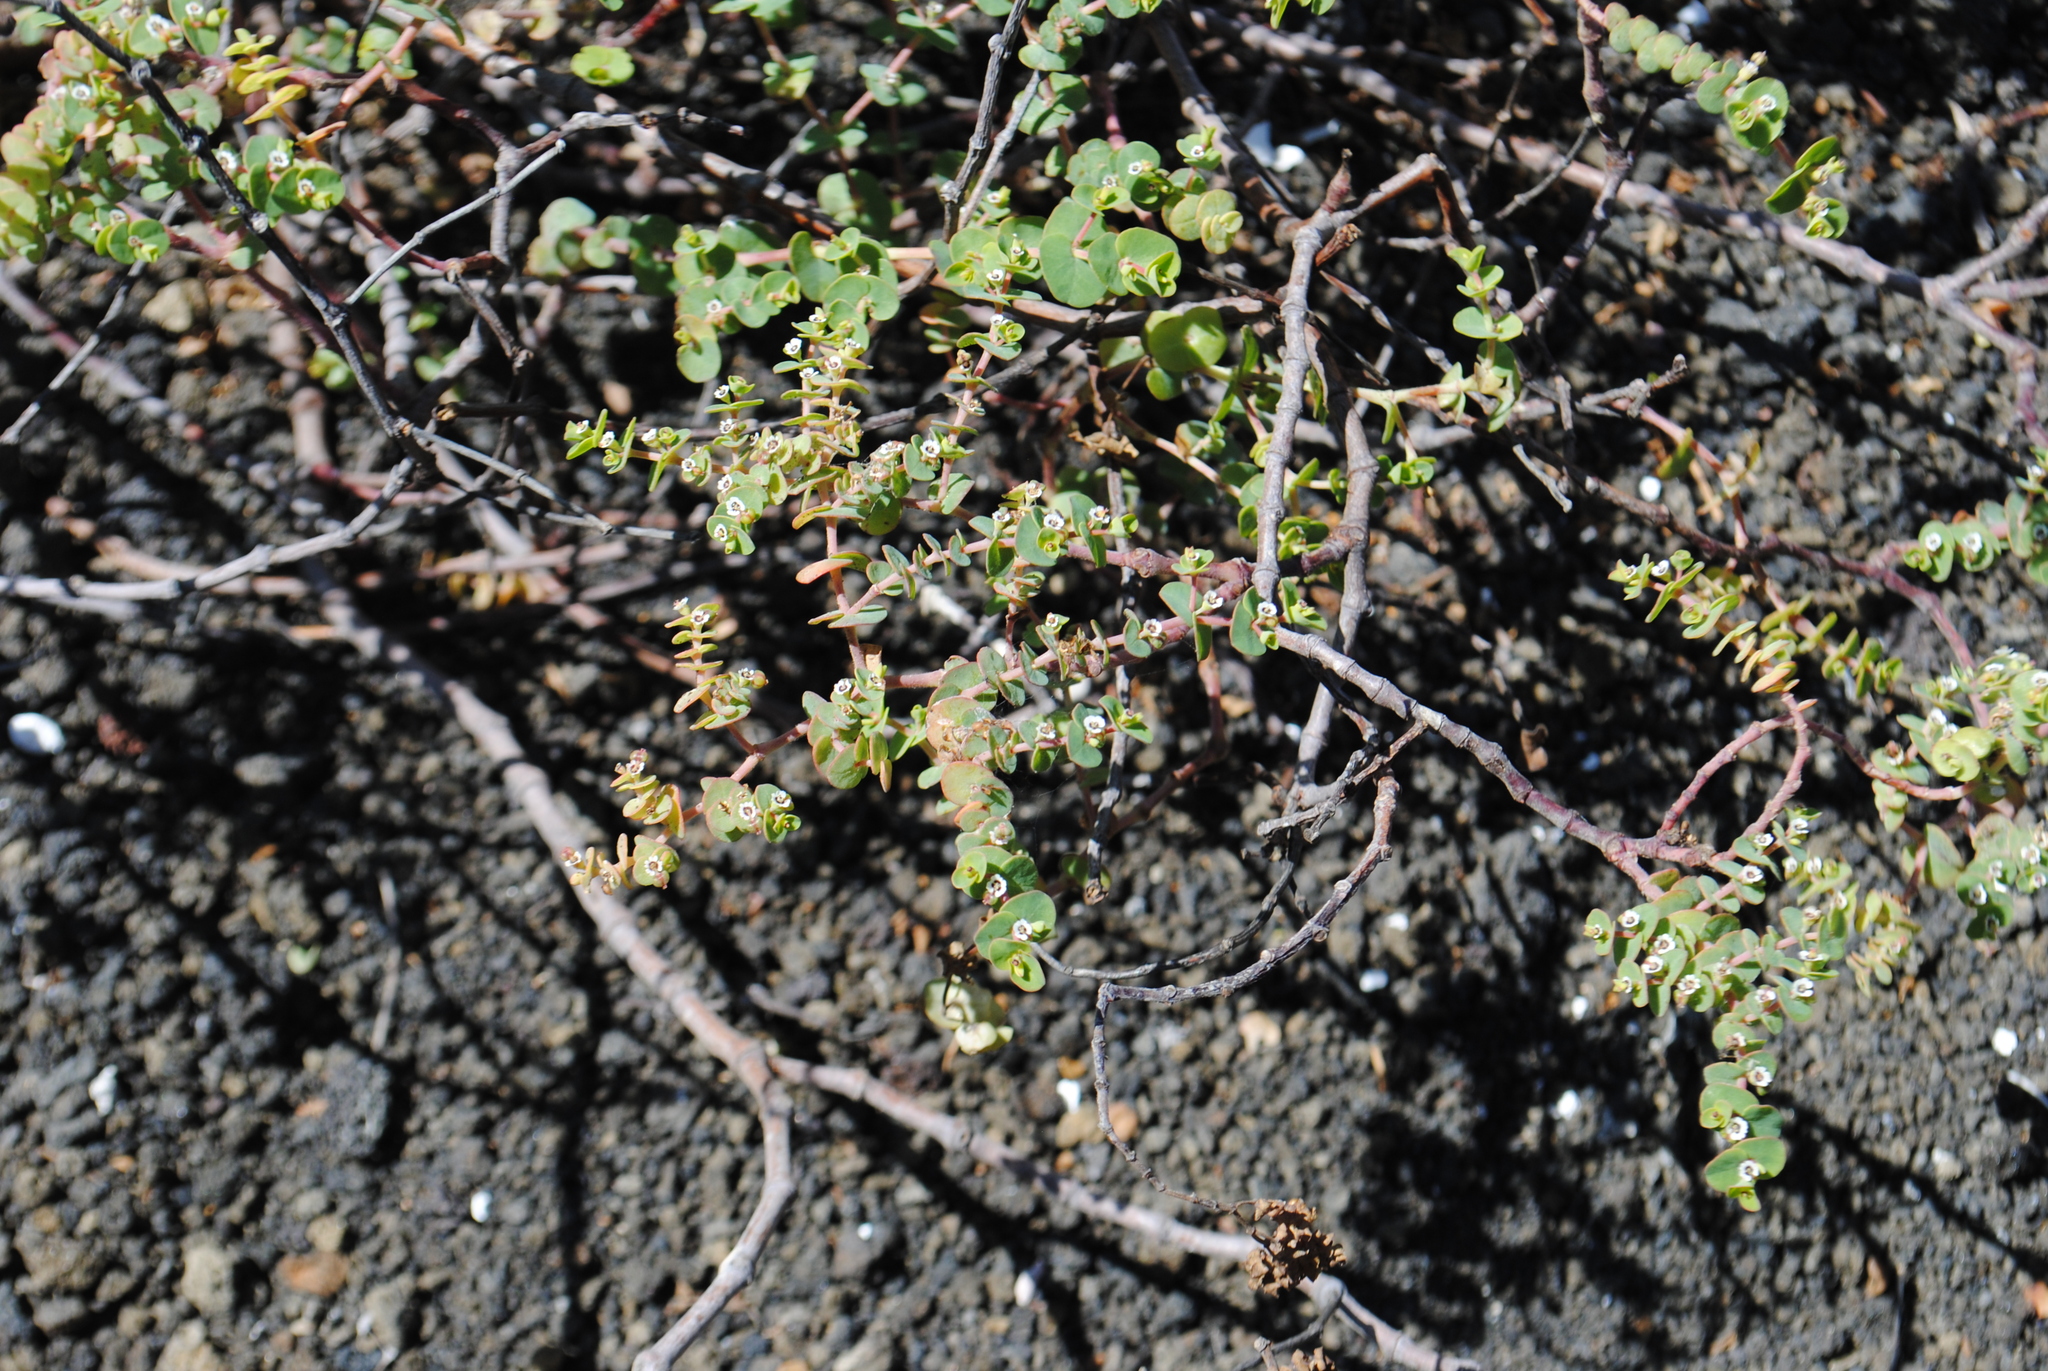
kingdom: Plantae
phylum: Tracheophyta
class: Magnoliopsida
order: Malpighiales
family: Euphorbiaceae
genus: Euphorbia
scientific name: Euphorbia amplexicaulis
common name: Chamaesyce
